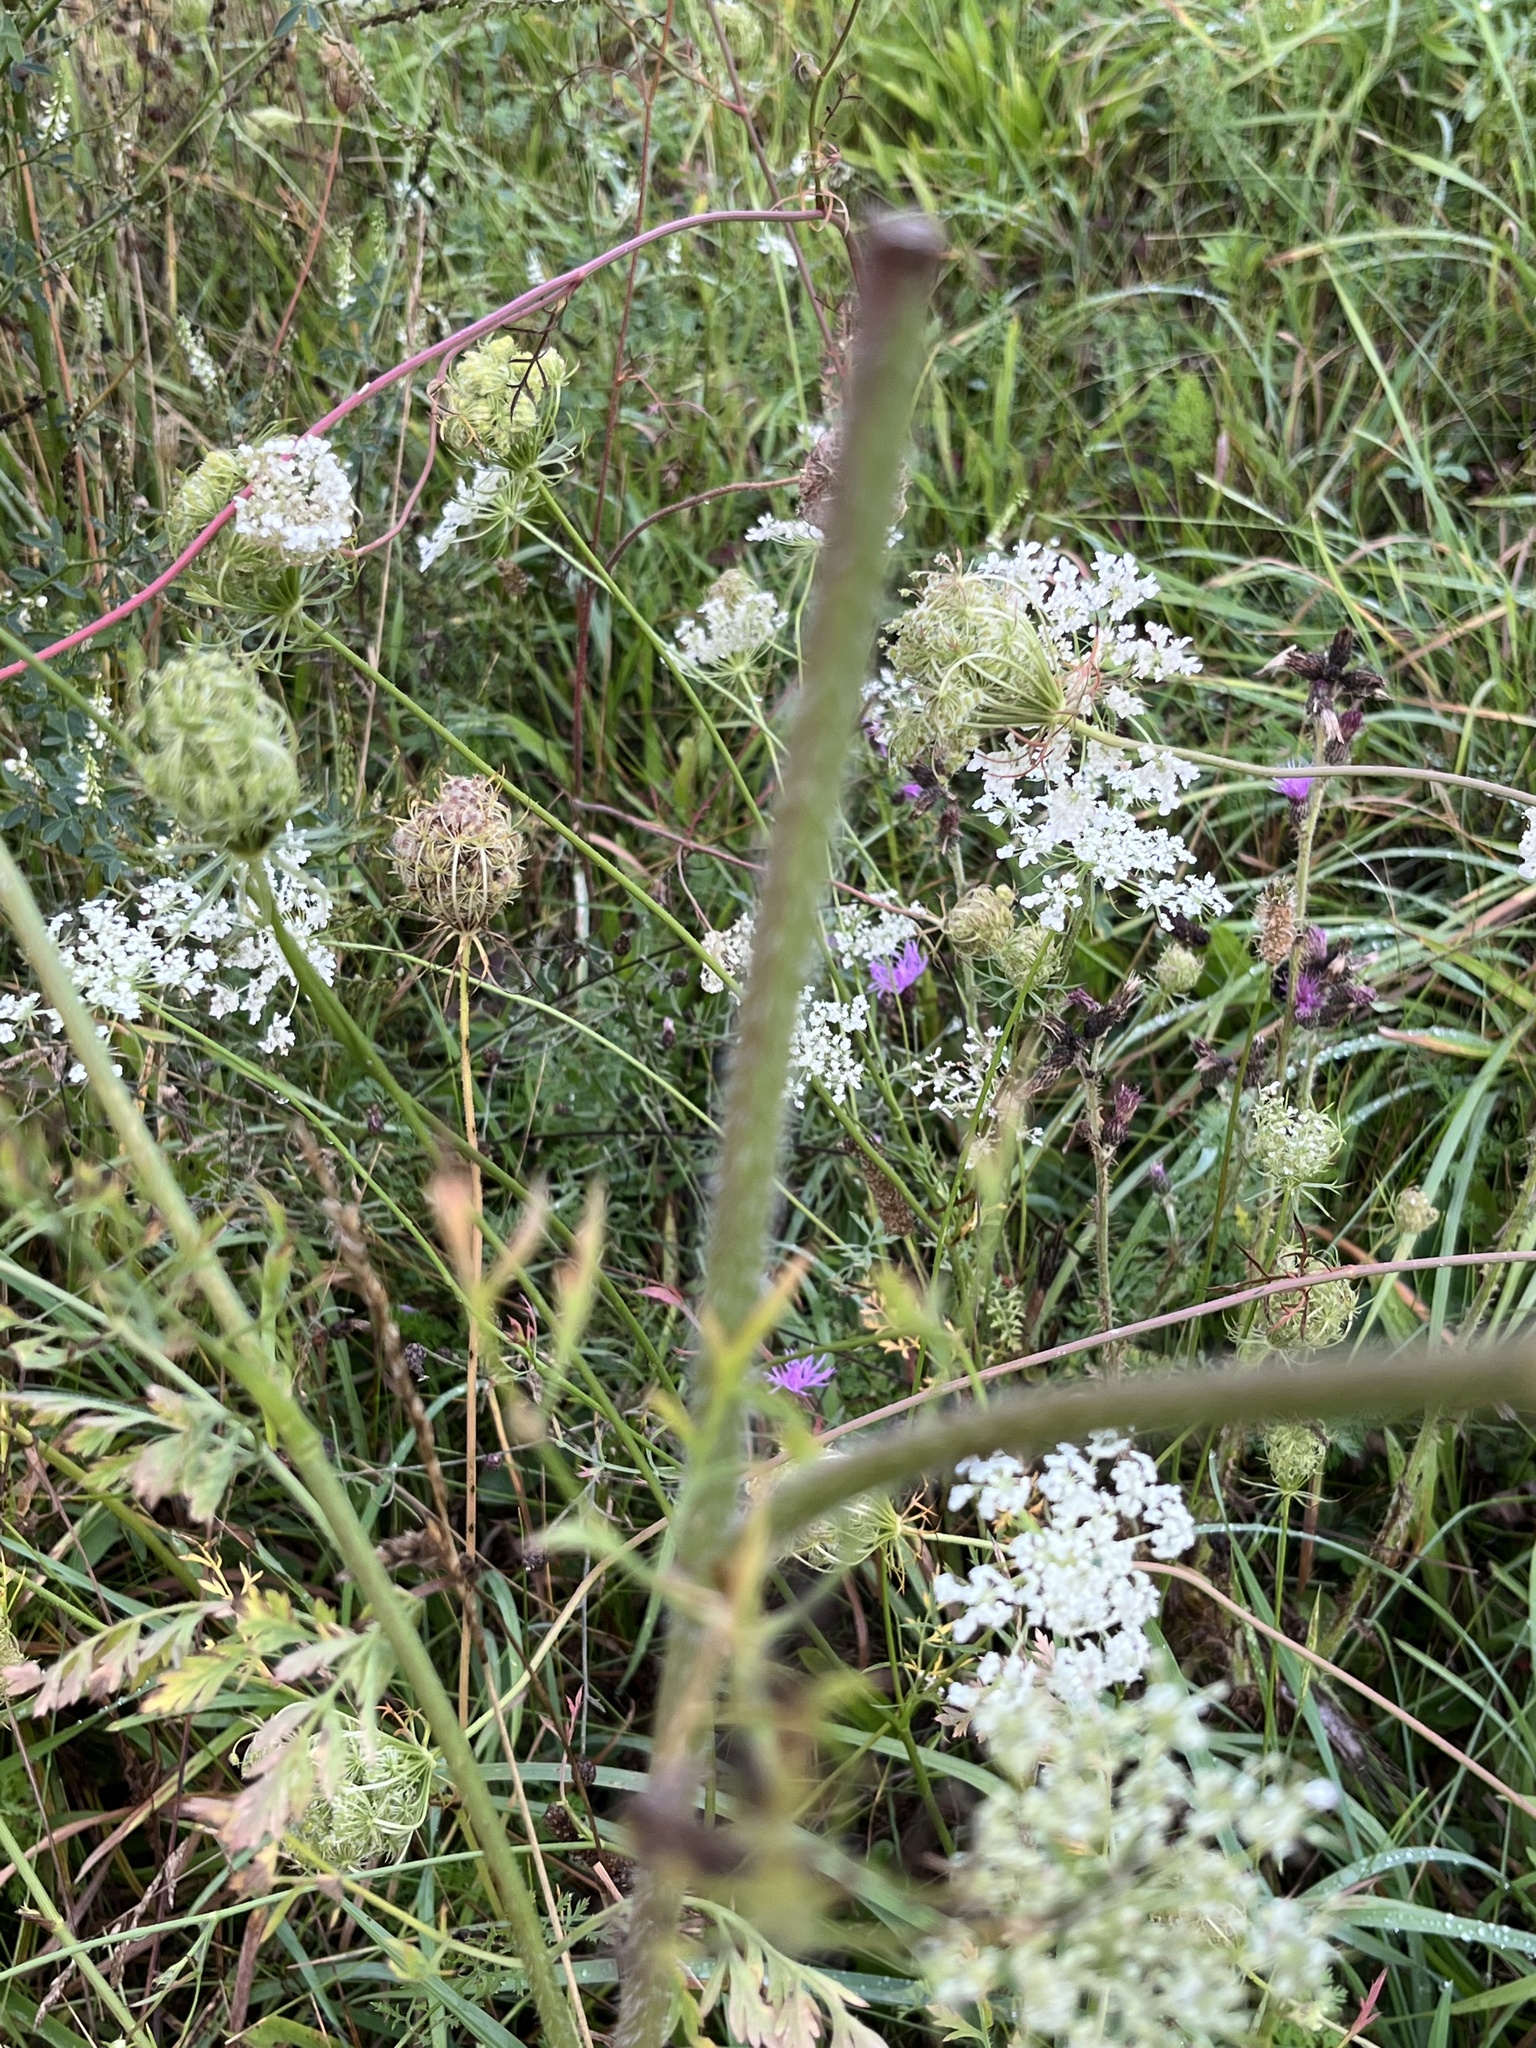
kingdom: Plantae
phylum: Tracheophyta
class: Magnoliopsida
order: Apiales
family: Apiaceae
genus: Daucus
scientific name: Daucus carota
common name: Wild carrot
